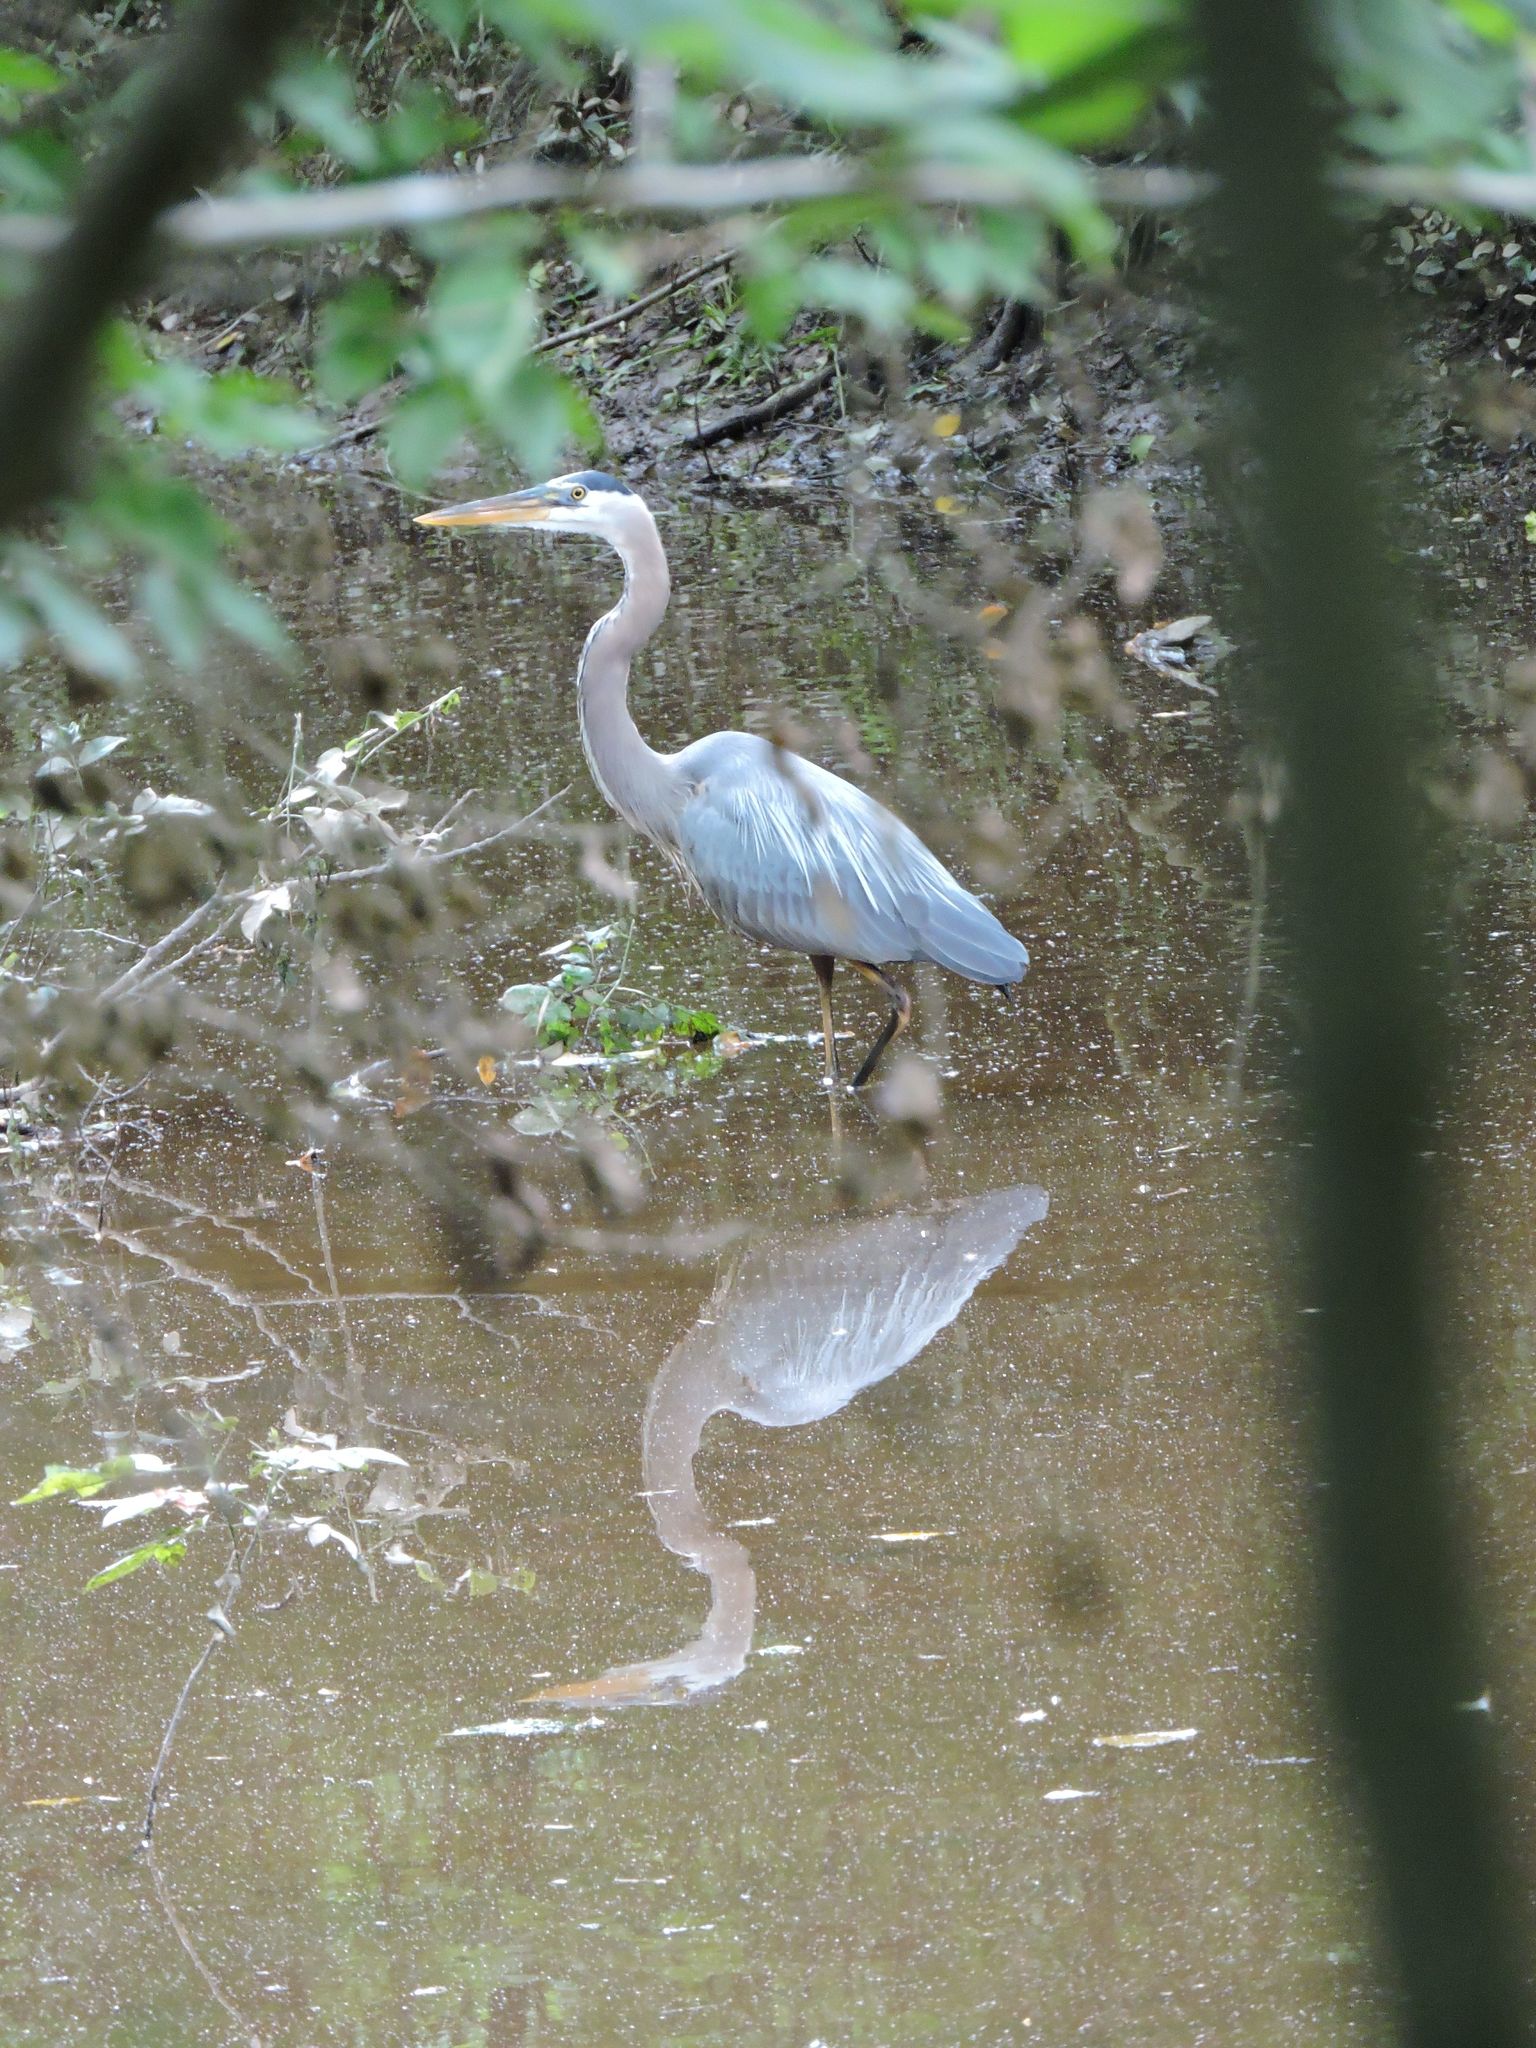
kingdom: Animalia
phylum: Chordata
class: Aves
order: Pelecaniformes
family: Ardeidae
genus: Ardea
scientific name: Ardea herodias
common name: Great blue heron
